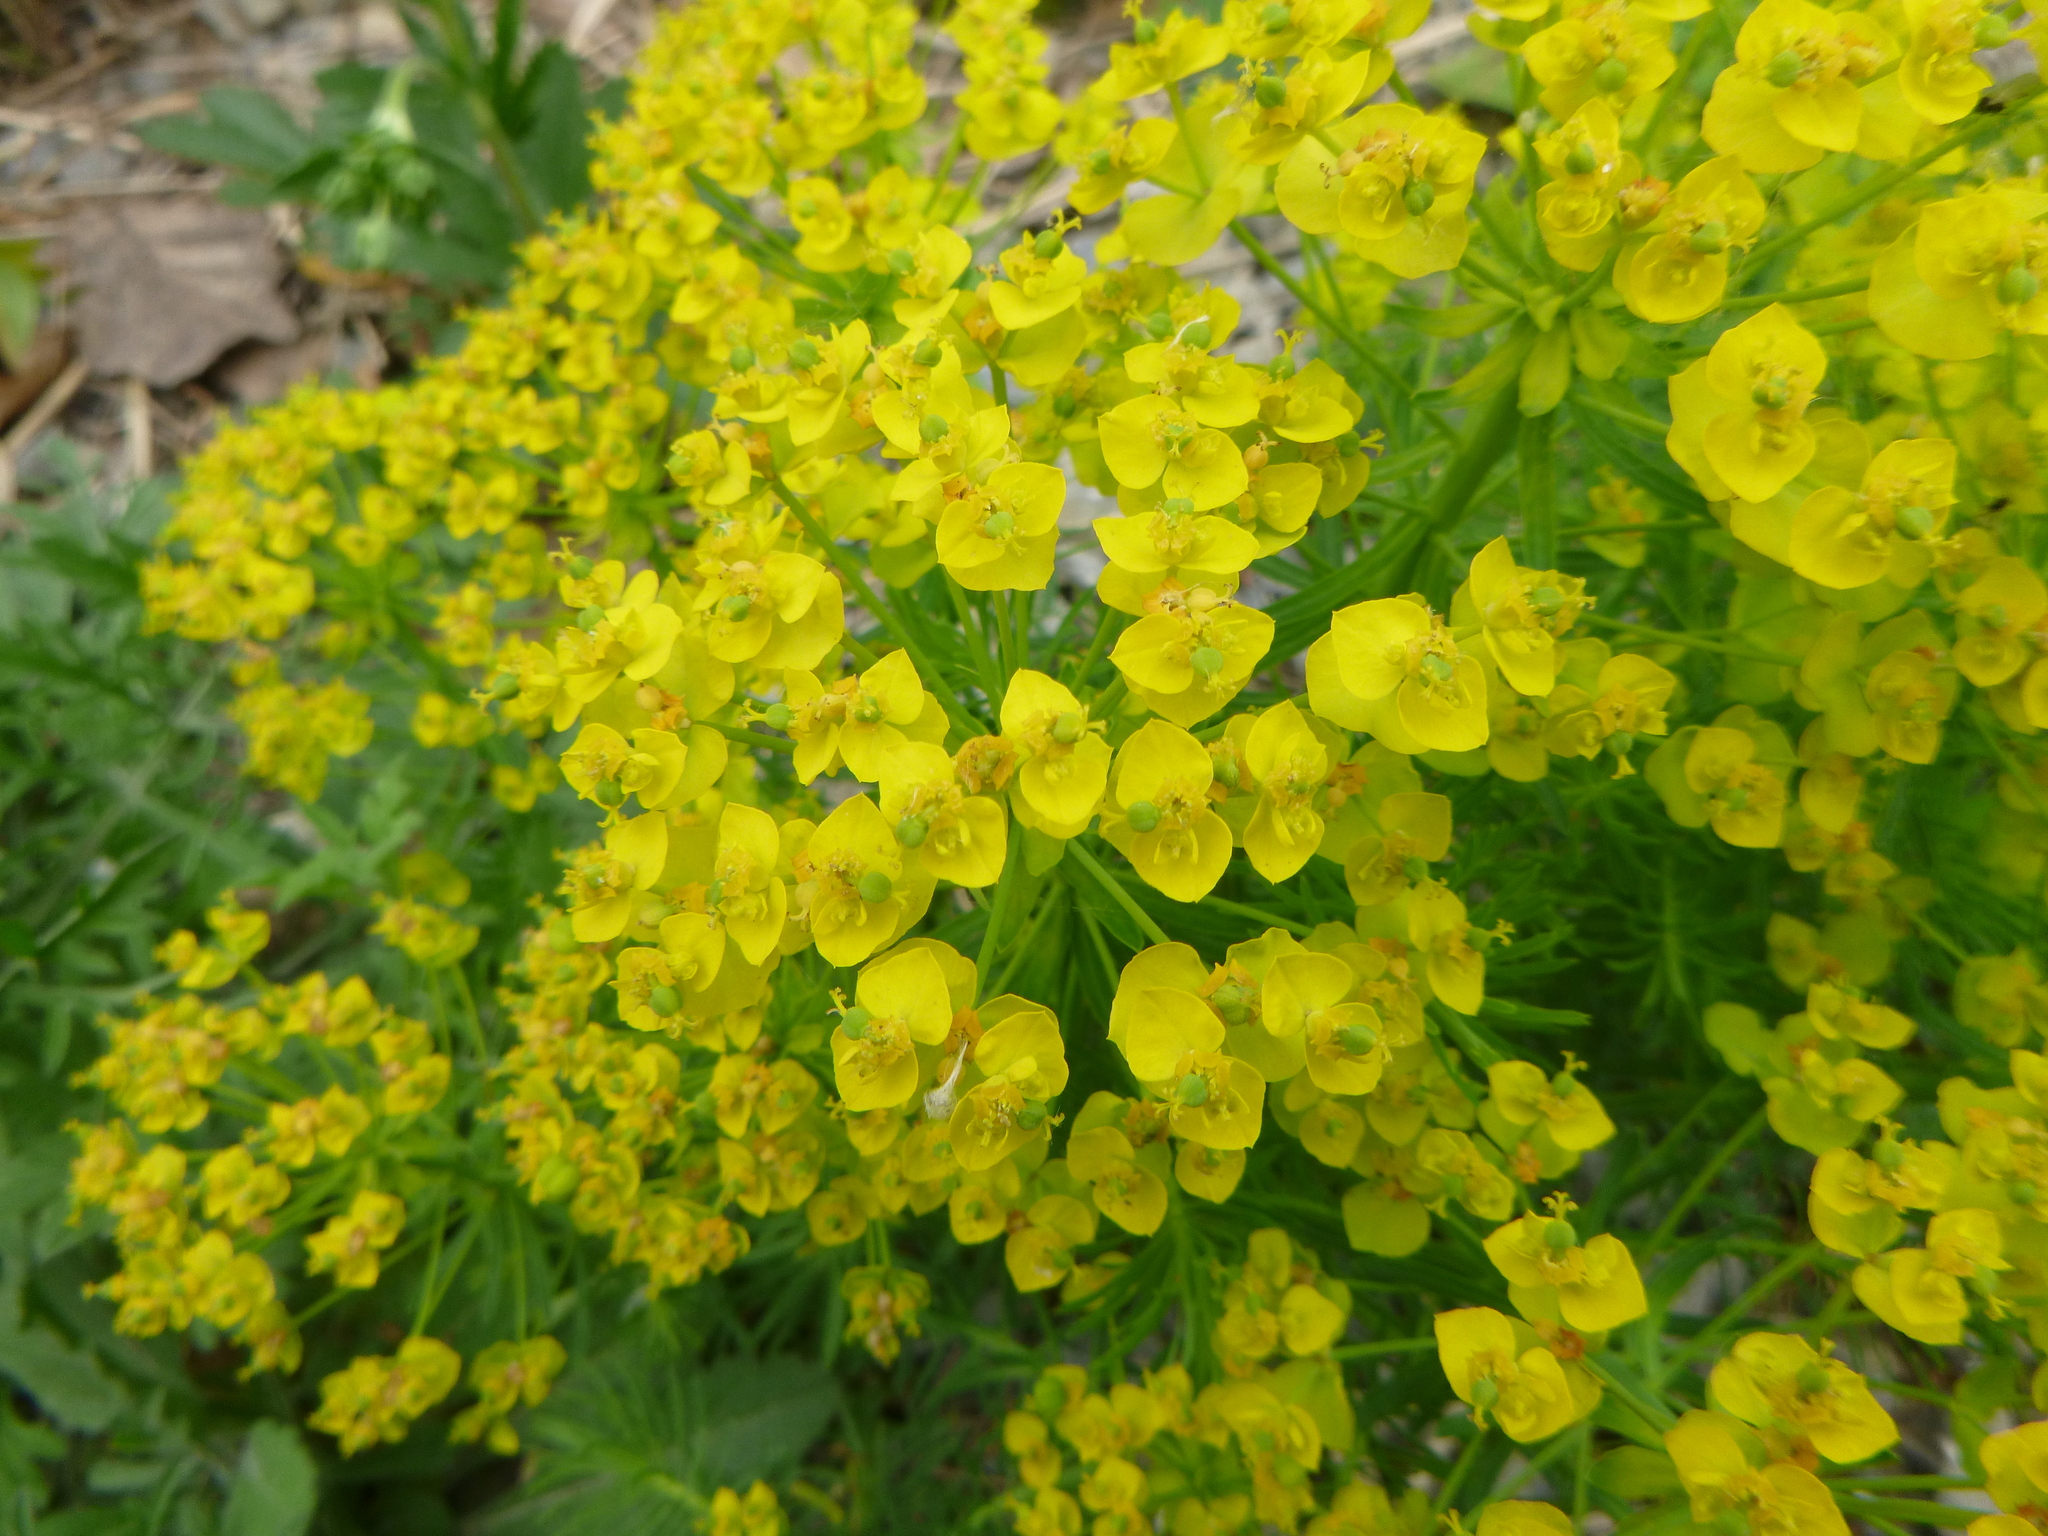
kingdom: Plantae
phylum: Tracheophyta
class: Magnoliopsida
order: Malpighiales
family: Euphorbiaceae
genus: Euphorbia
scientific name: Euphorbia cyparissias
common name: Cypress spurge
